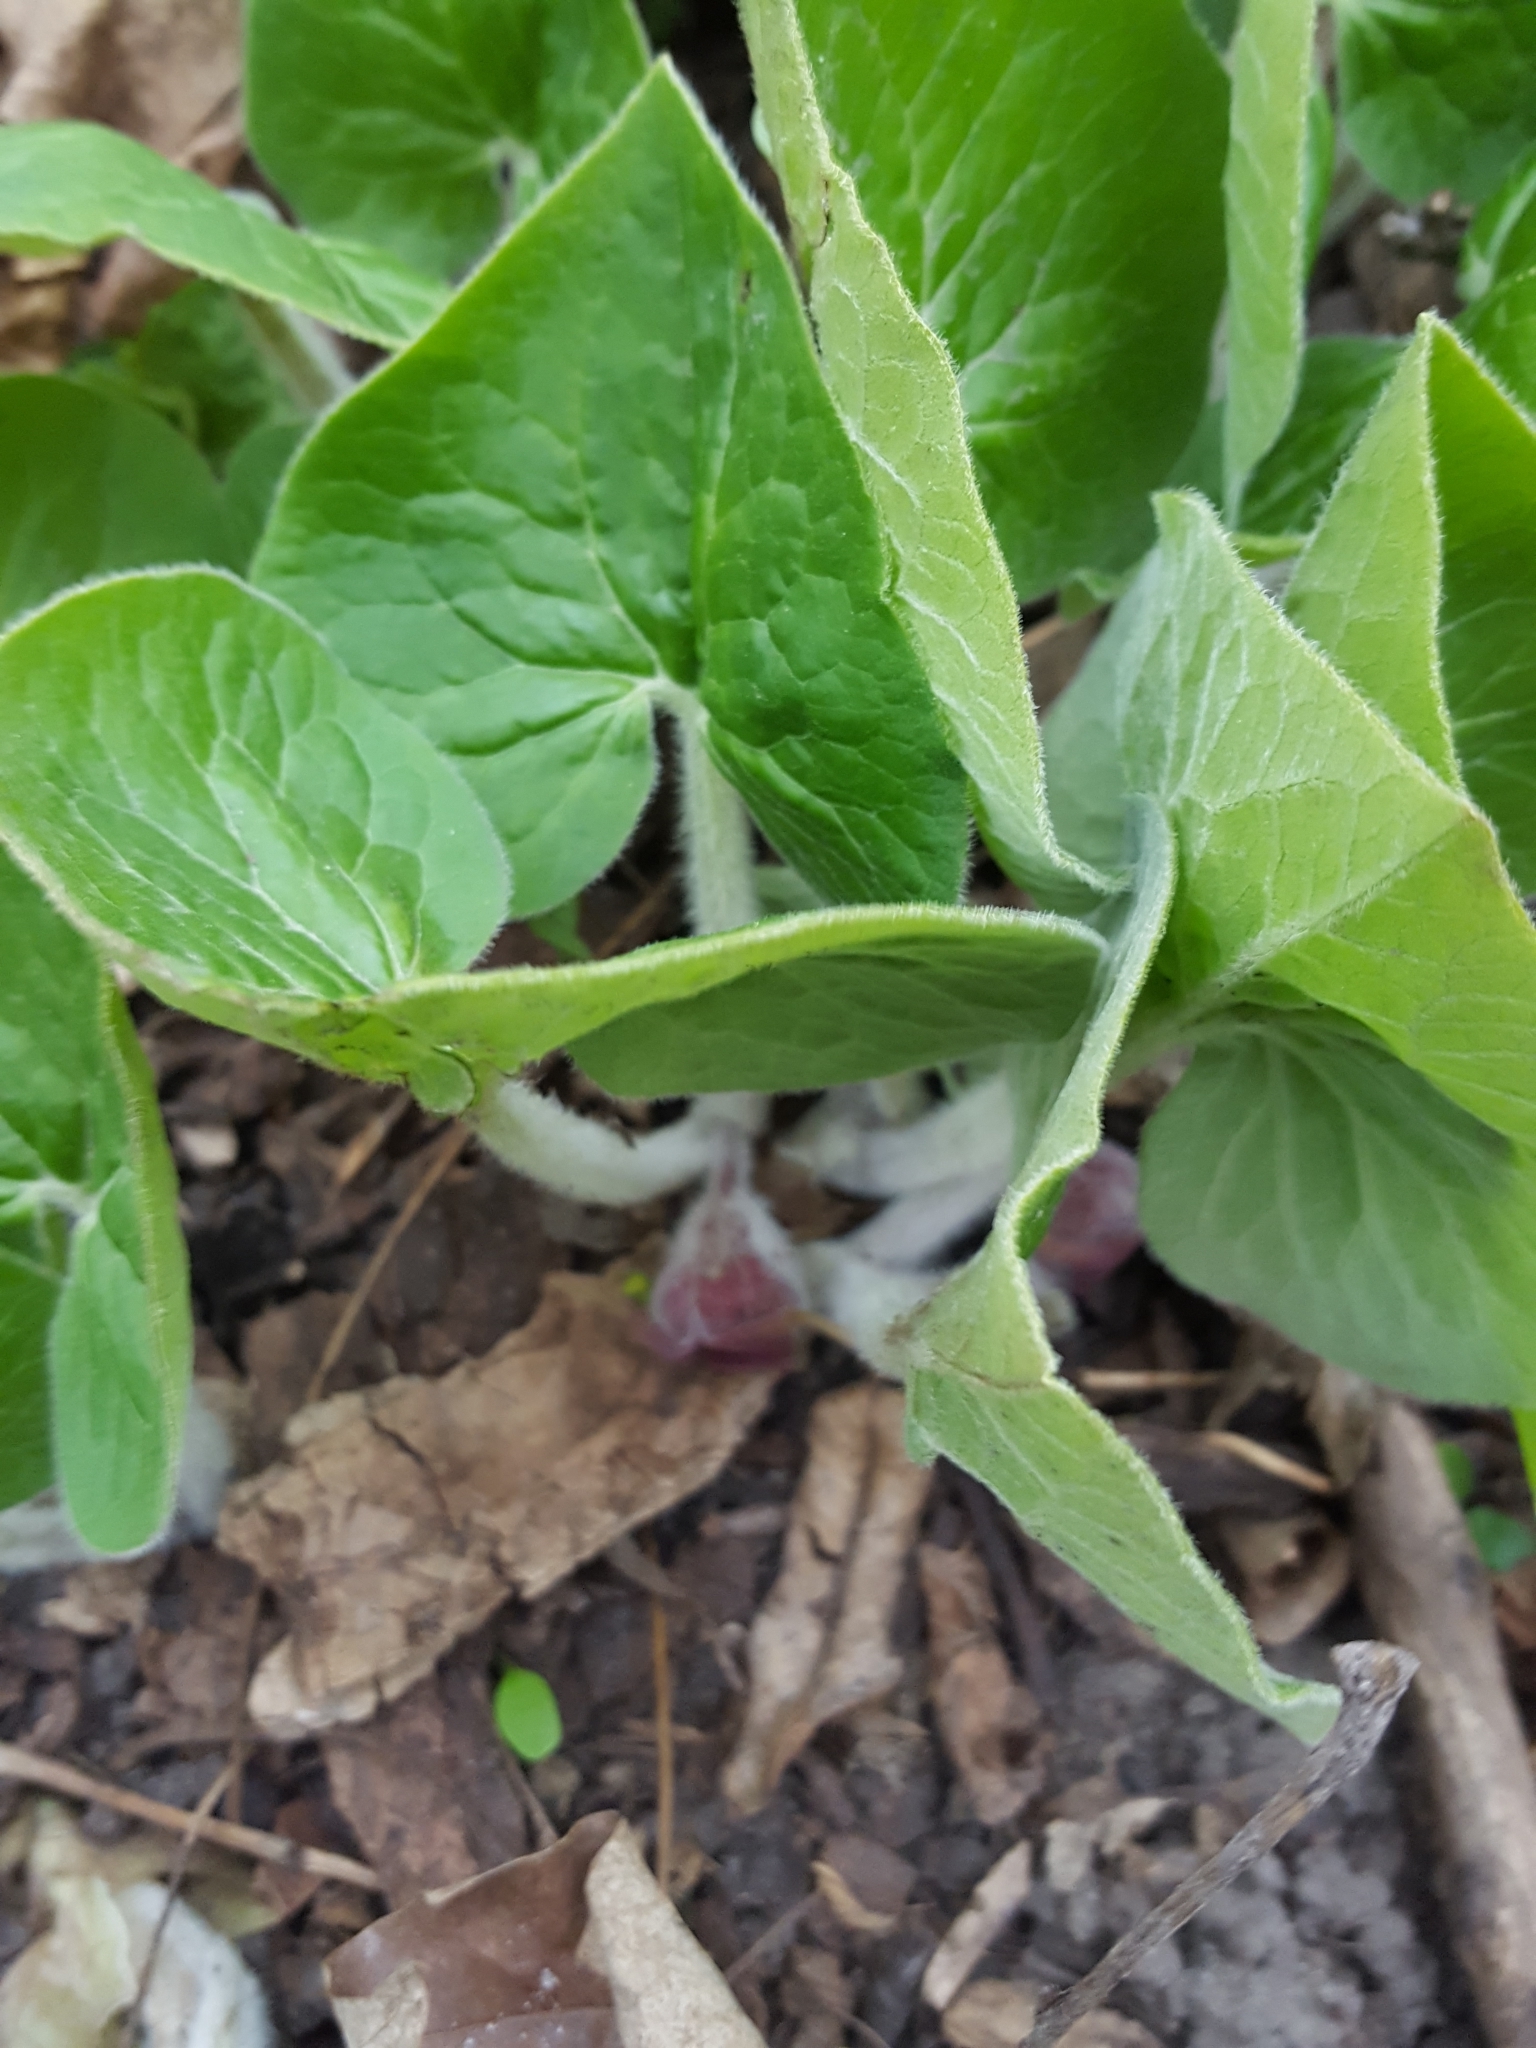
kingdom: Plantae
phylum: Tracheophyta
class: Magnoliopsida
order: Piperales
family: Aristolochiaceae
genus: Asarum
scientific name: Asarum canadense
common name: Wild ginger
